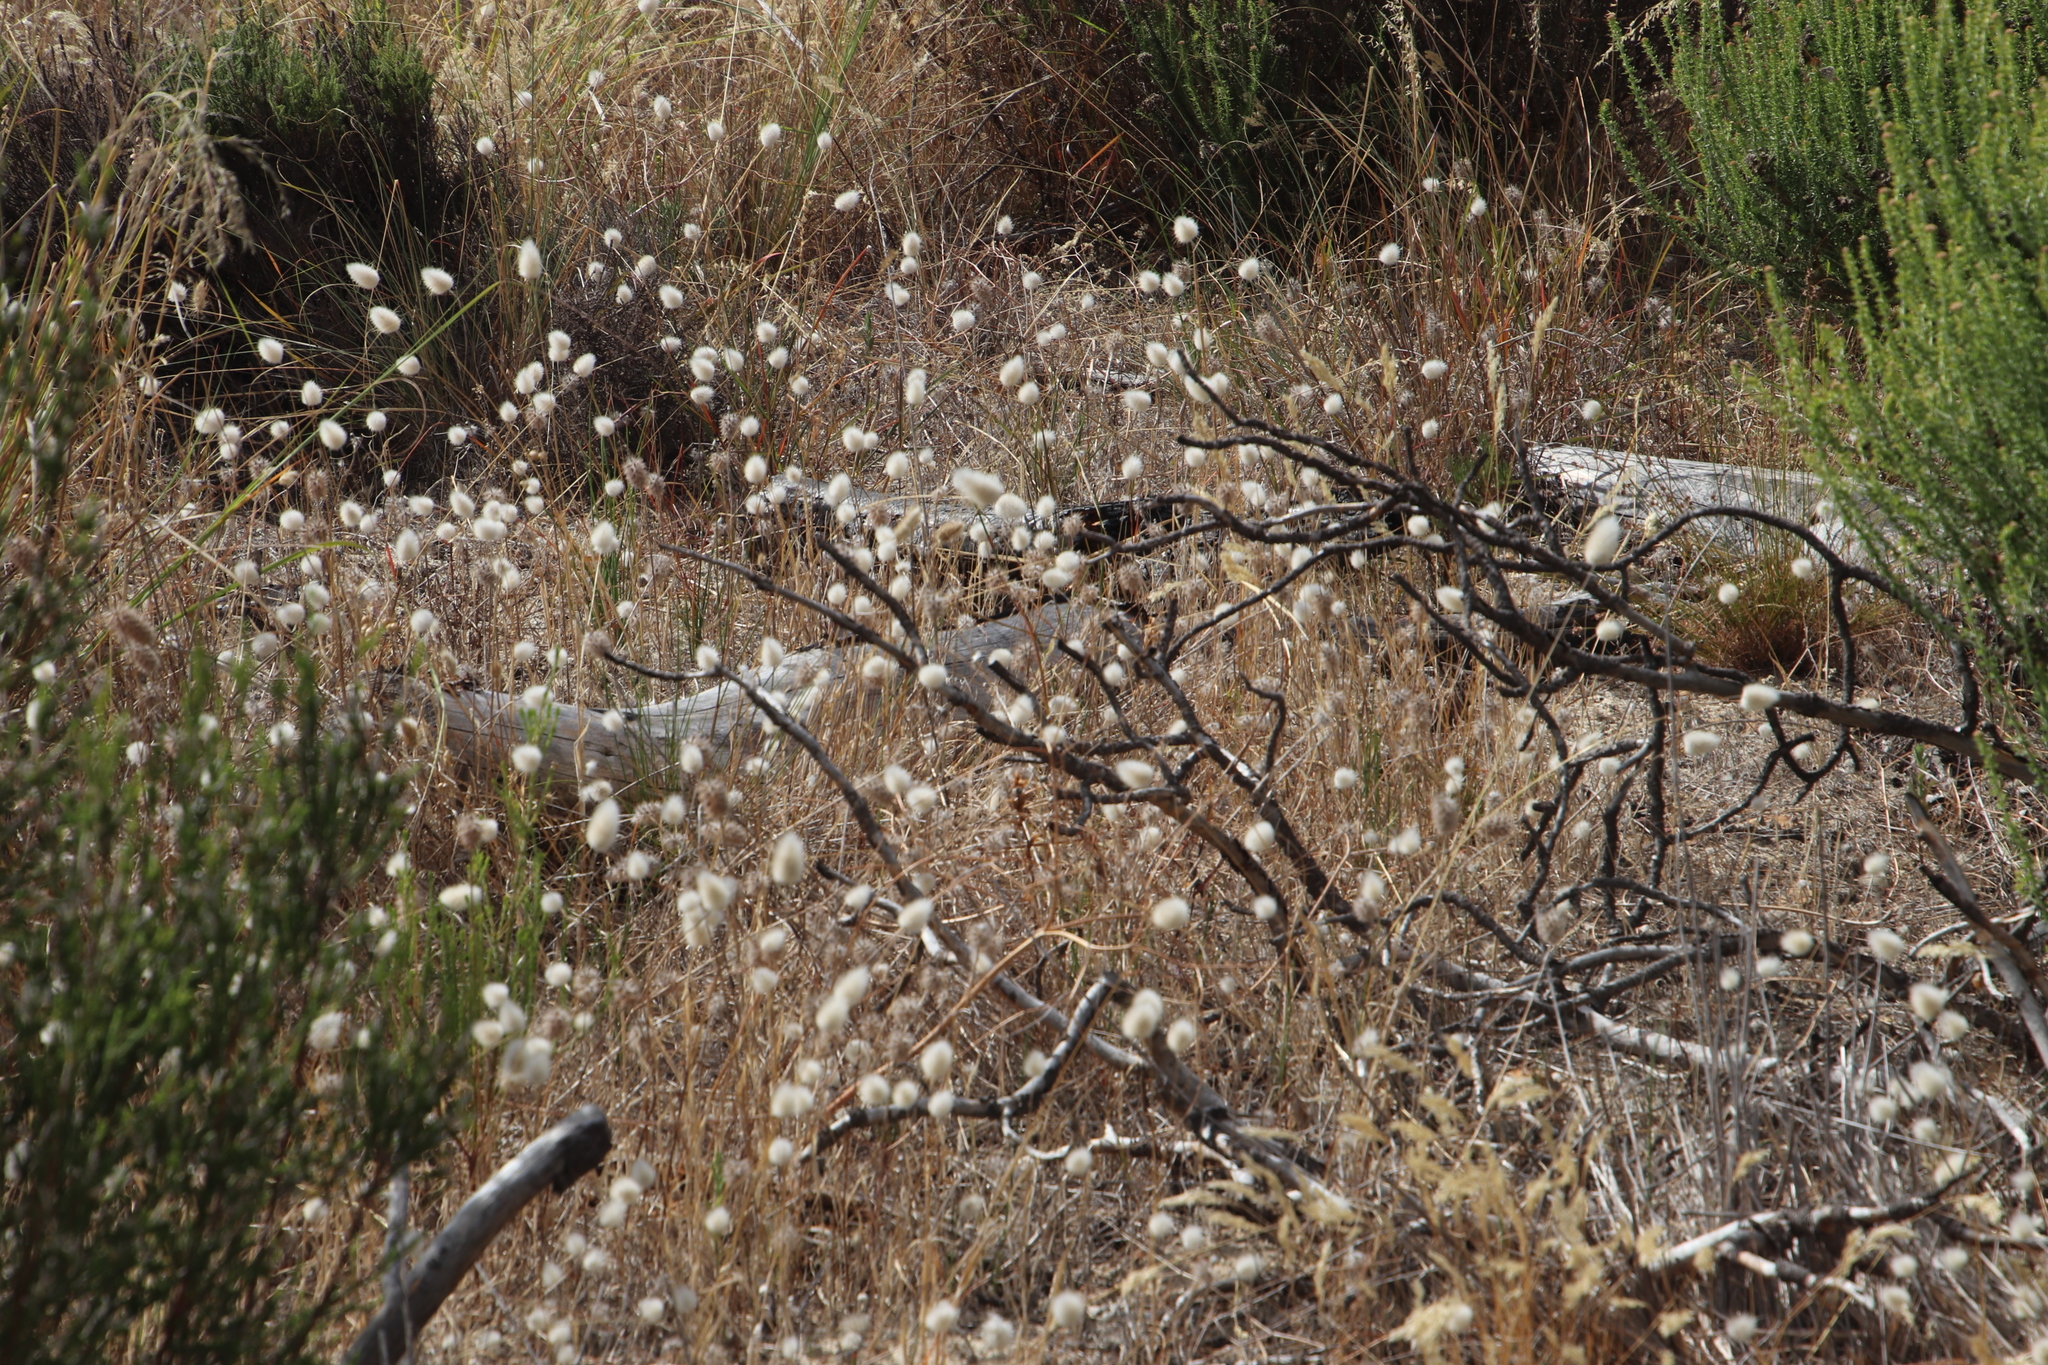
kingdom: Plantae
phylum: Tracheophyta
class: Liliopsida
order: Poales
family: Poaceae
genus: Lagurus
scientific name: Lagurus ovatus
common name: Hare's-tail
